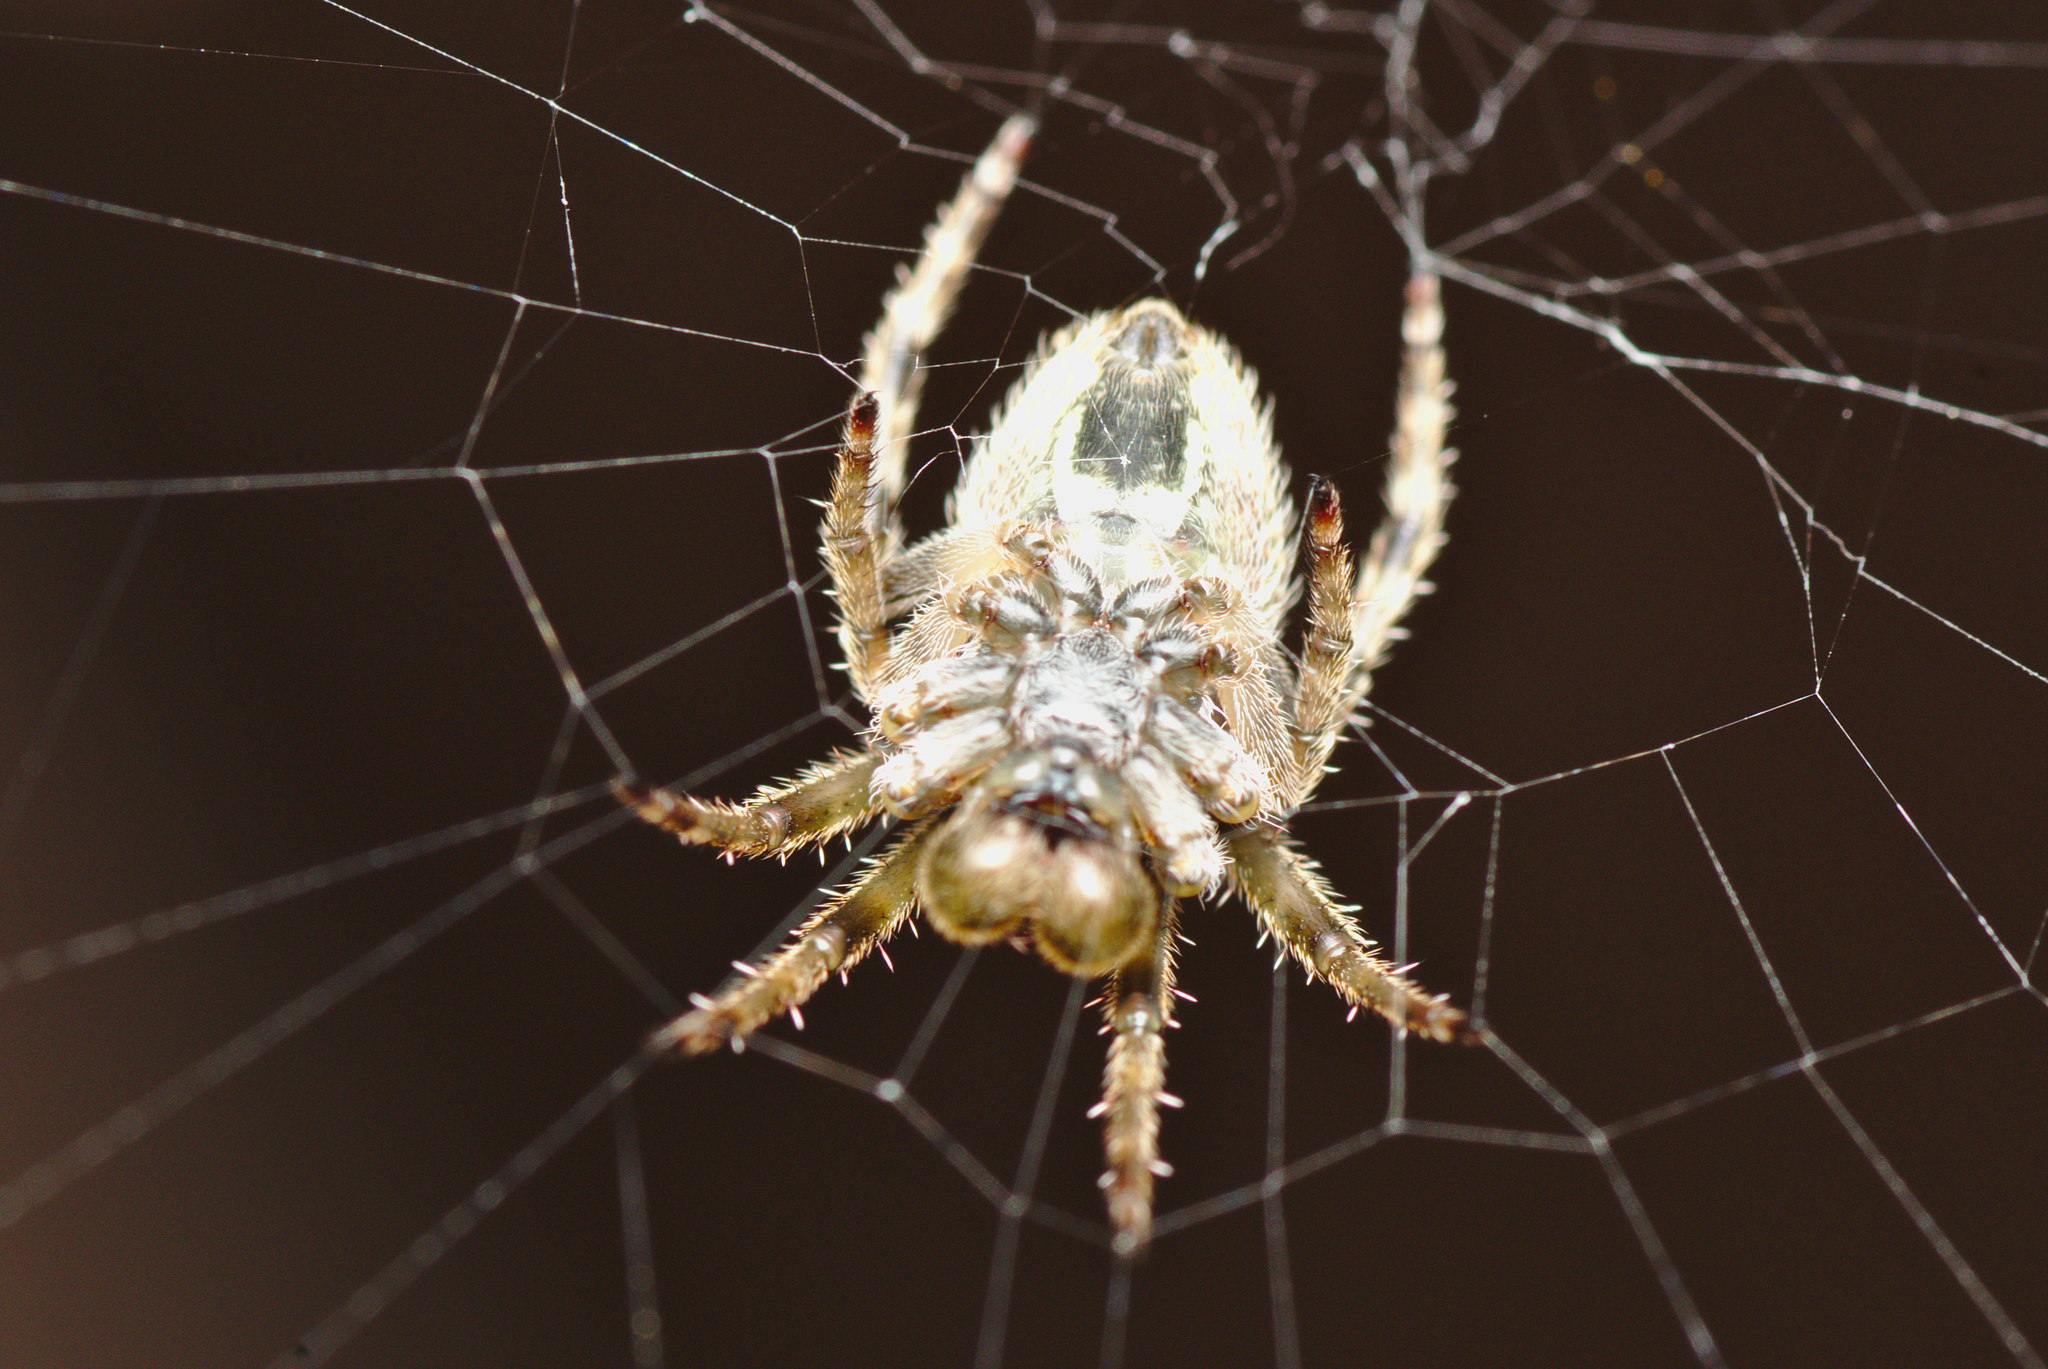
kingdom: Animalia
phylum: Arthropoda
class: Arachnida
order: Araneae
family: Araneidae
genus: Eriophora
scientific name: Eriophora pustulosa
